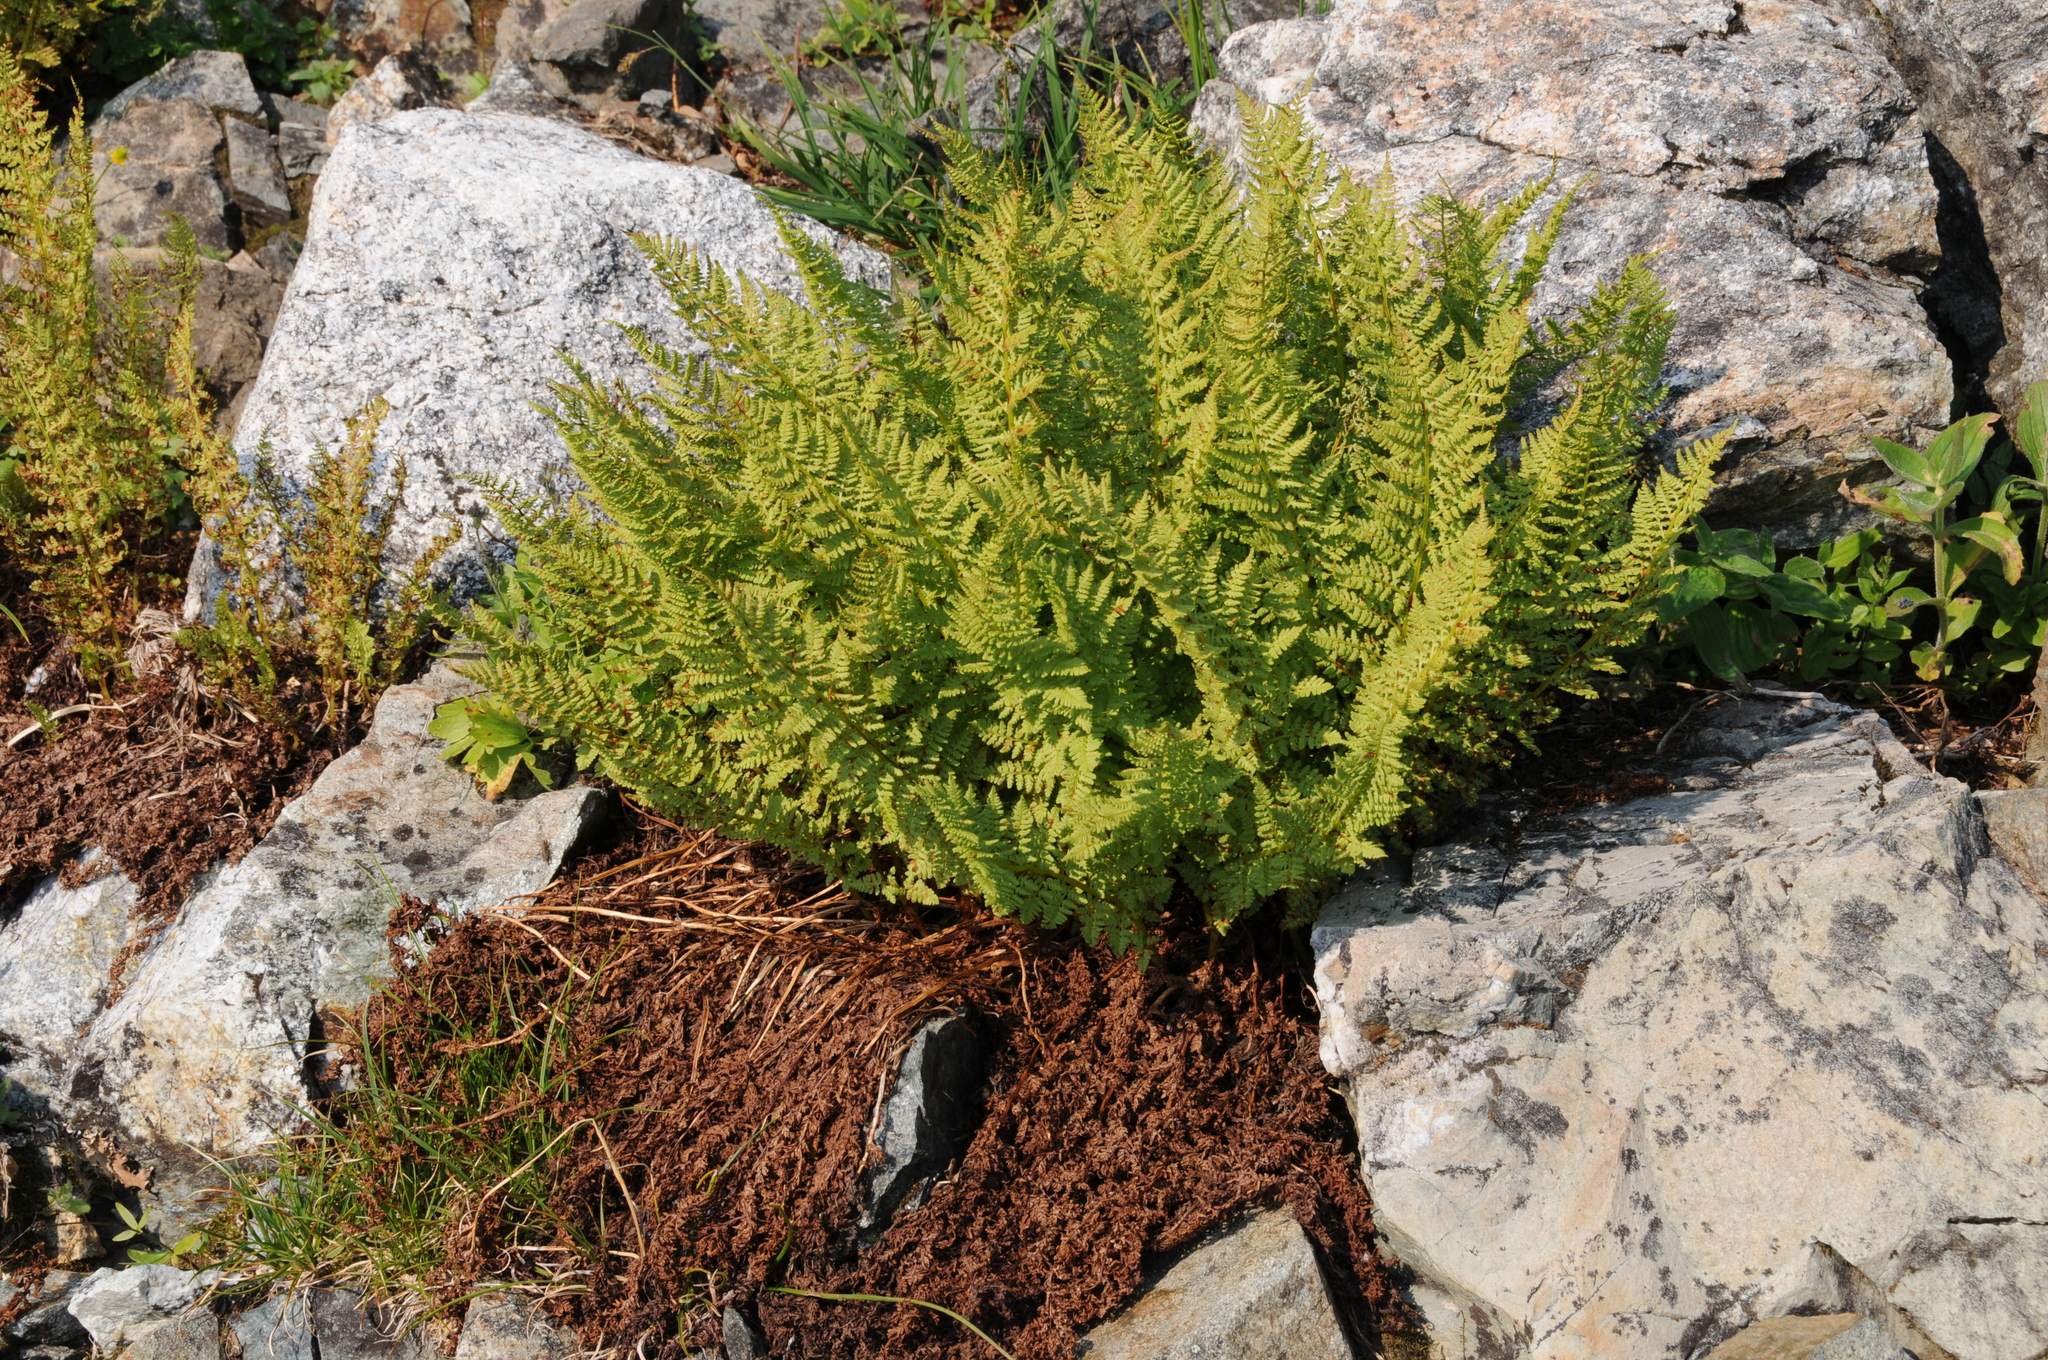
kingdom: Plantae
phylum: Tracheophyta
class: Polypodiopsida
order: Polypodiales
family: Athyriaceae
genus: Athyrium
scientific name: Athyrium americanum
